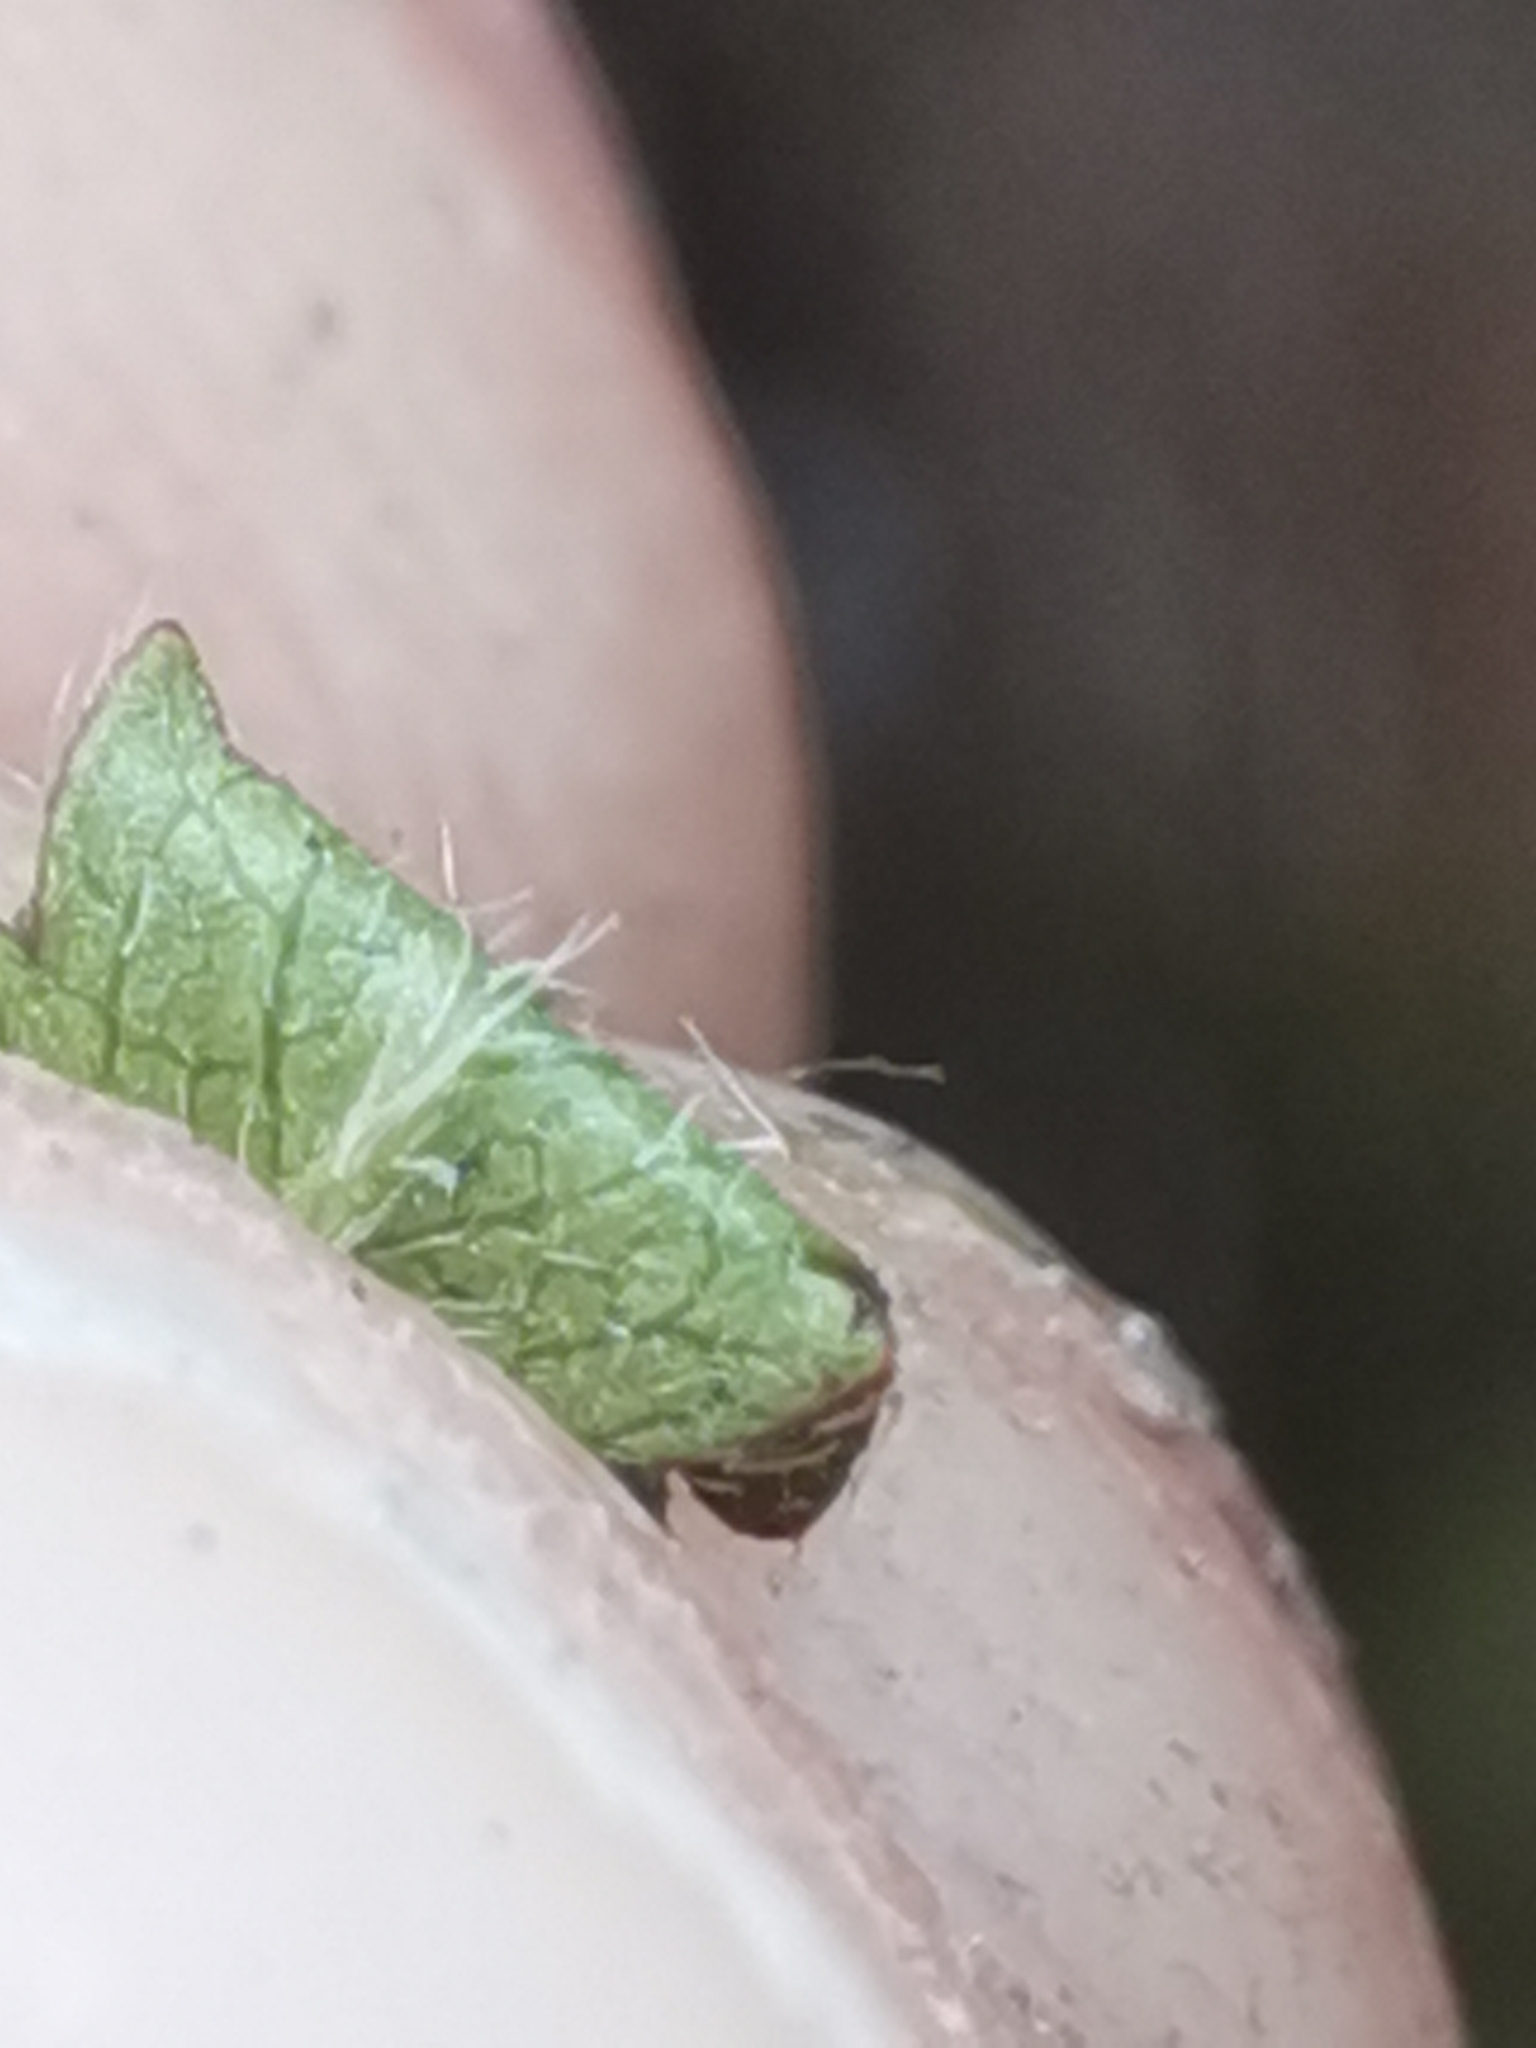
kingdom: Plantae
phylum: Tracheophyta
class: Magnoliopsida
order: Rosales
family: Rosaceae
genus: Potentilla
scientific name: Potentilla pusilla
